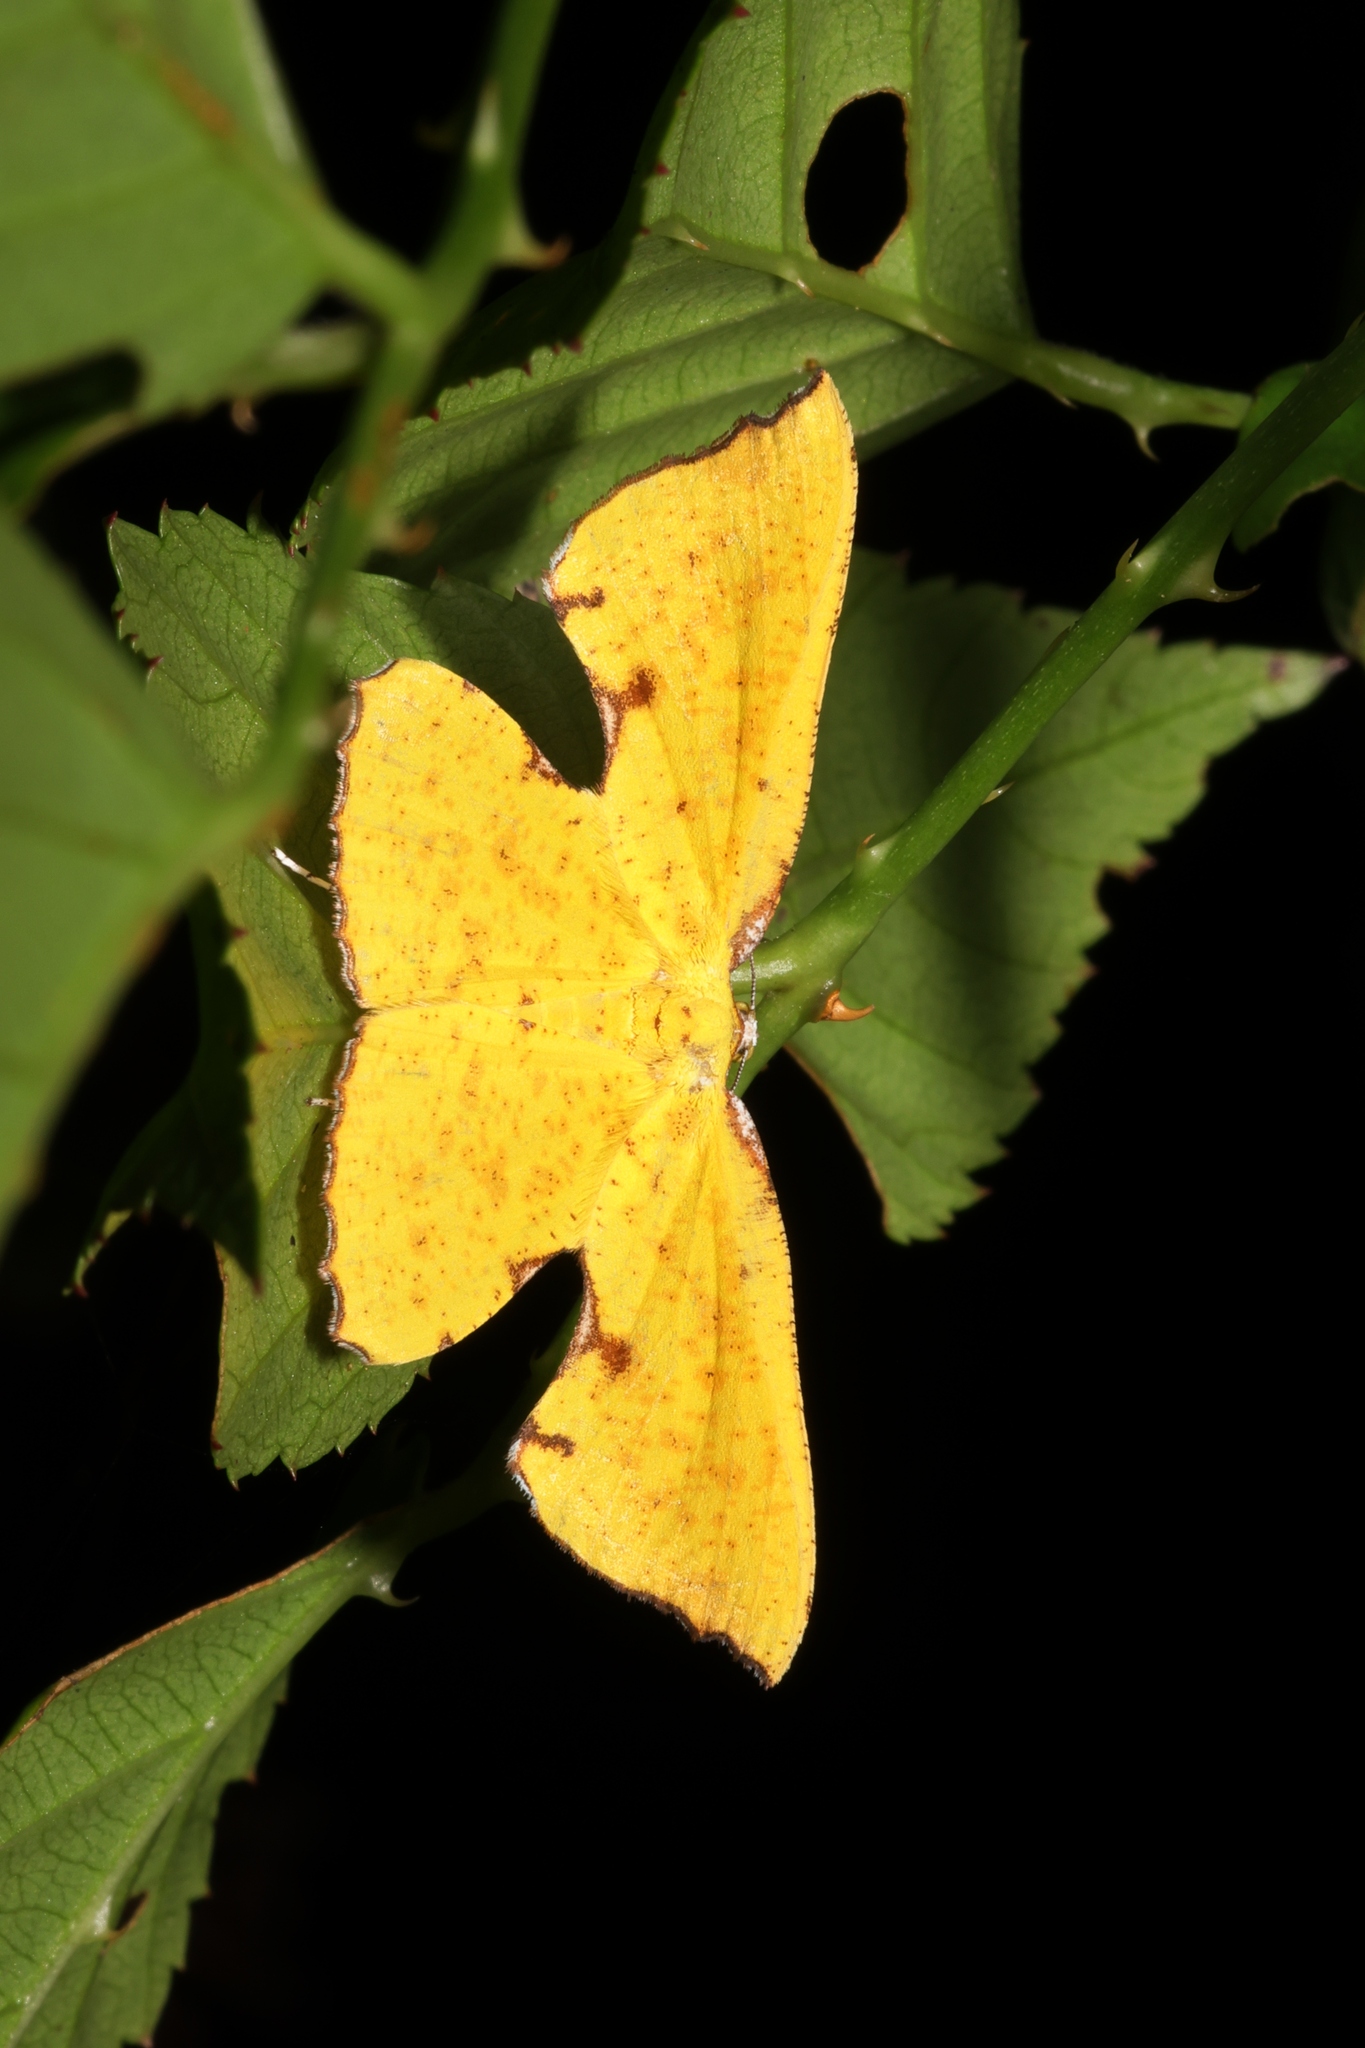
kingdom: Animalia
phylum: Arthropoda
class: Insecta
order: Lepidoptera
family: Geometridae
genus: Corymica
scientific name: Corymica spatiosa
